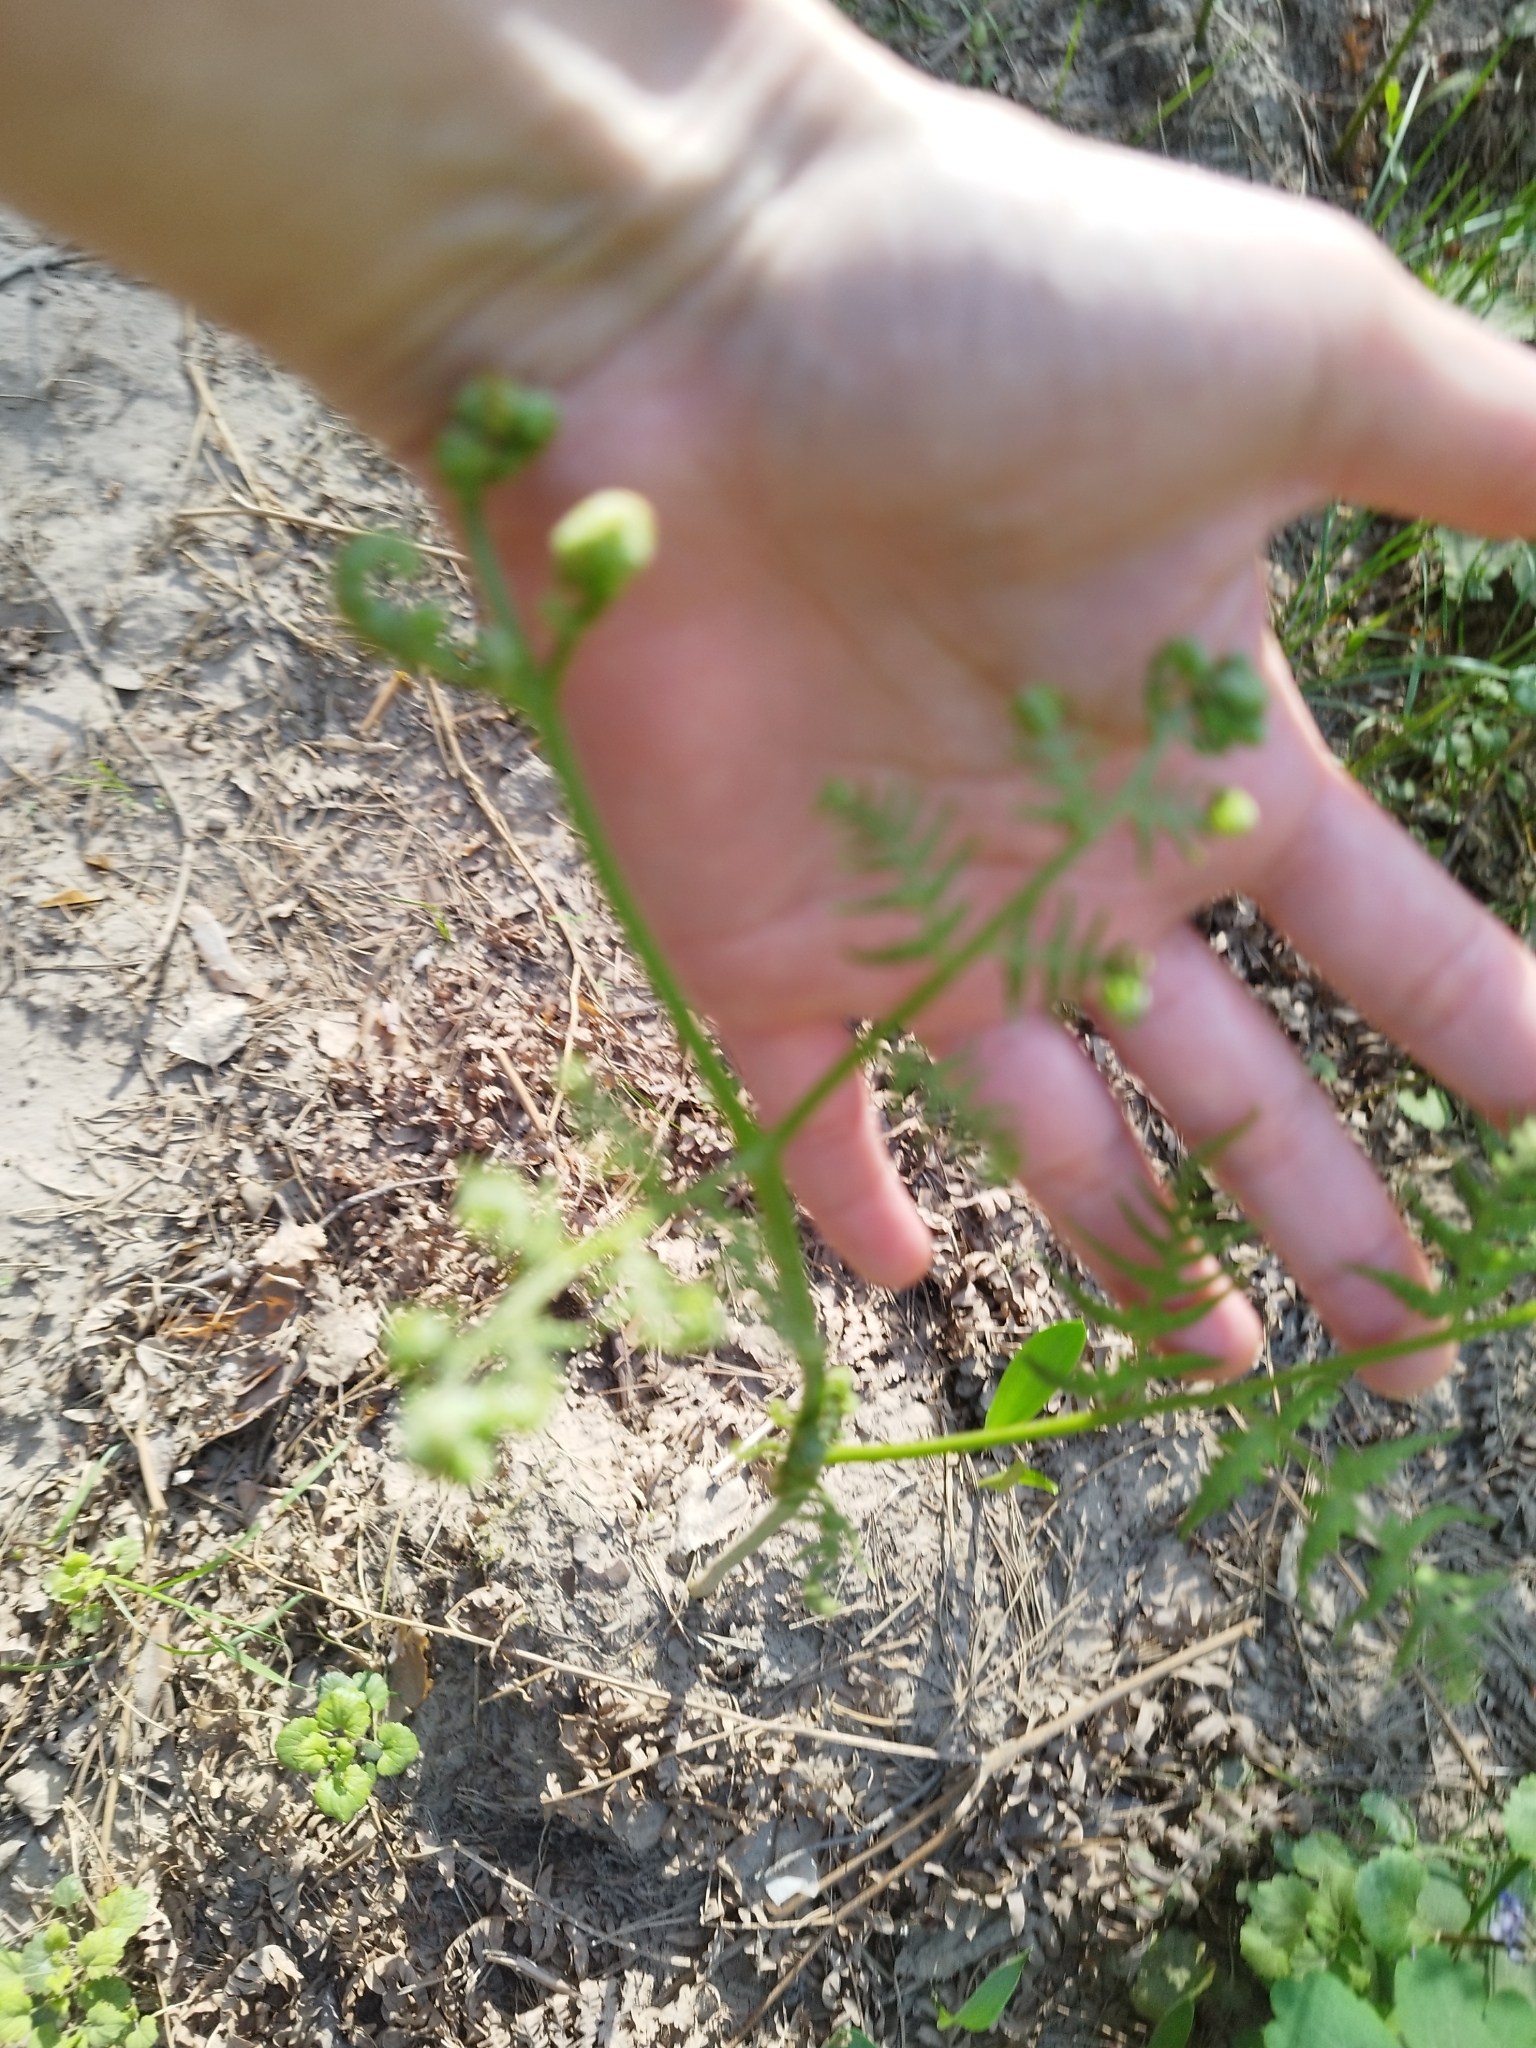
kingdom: Plantae
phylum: Tracheophyta
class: Polypodiopsida
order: Polypodiales
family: Dennstaedtiaceae
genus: Pteridium
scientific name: Pteridium aquilinum
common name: Bracken
